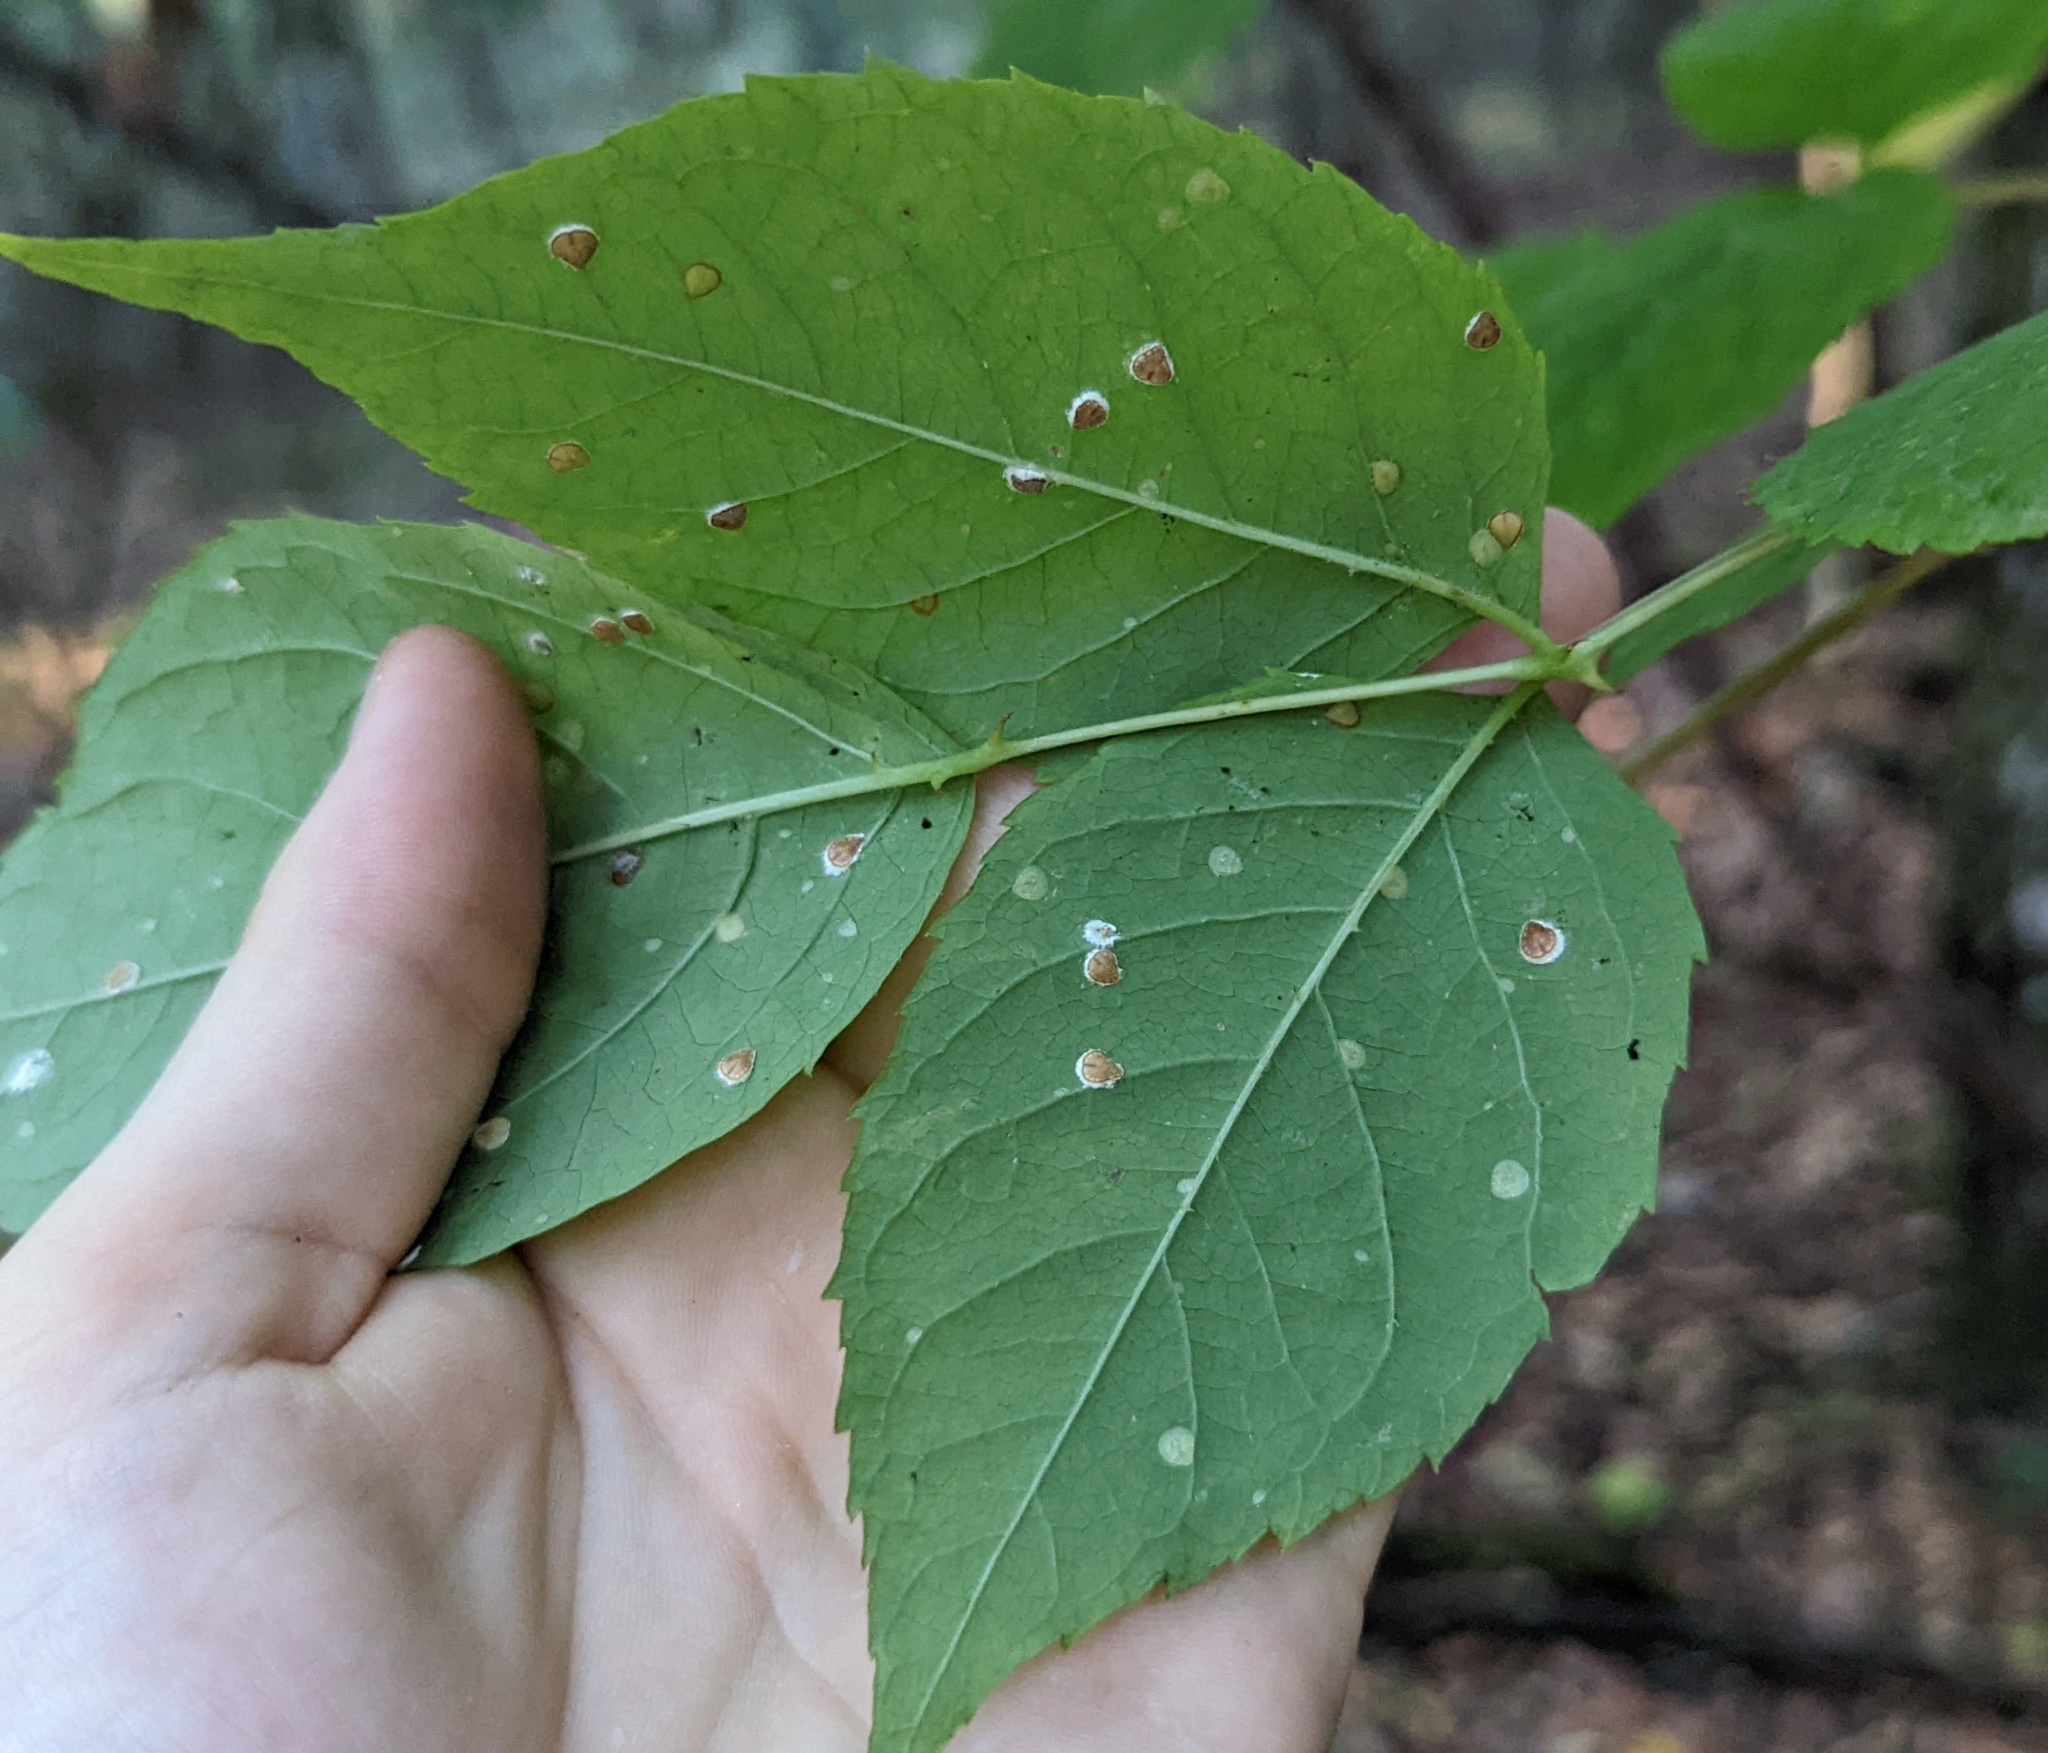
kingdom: Plantae
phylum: Tracheophyta
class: Magnoliopsida
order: Apiales
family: Araliaceae
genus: Aralia
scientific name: Aralia spinosa
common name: Hercules'-club
